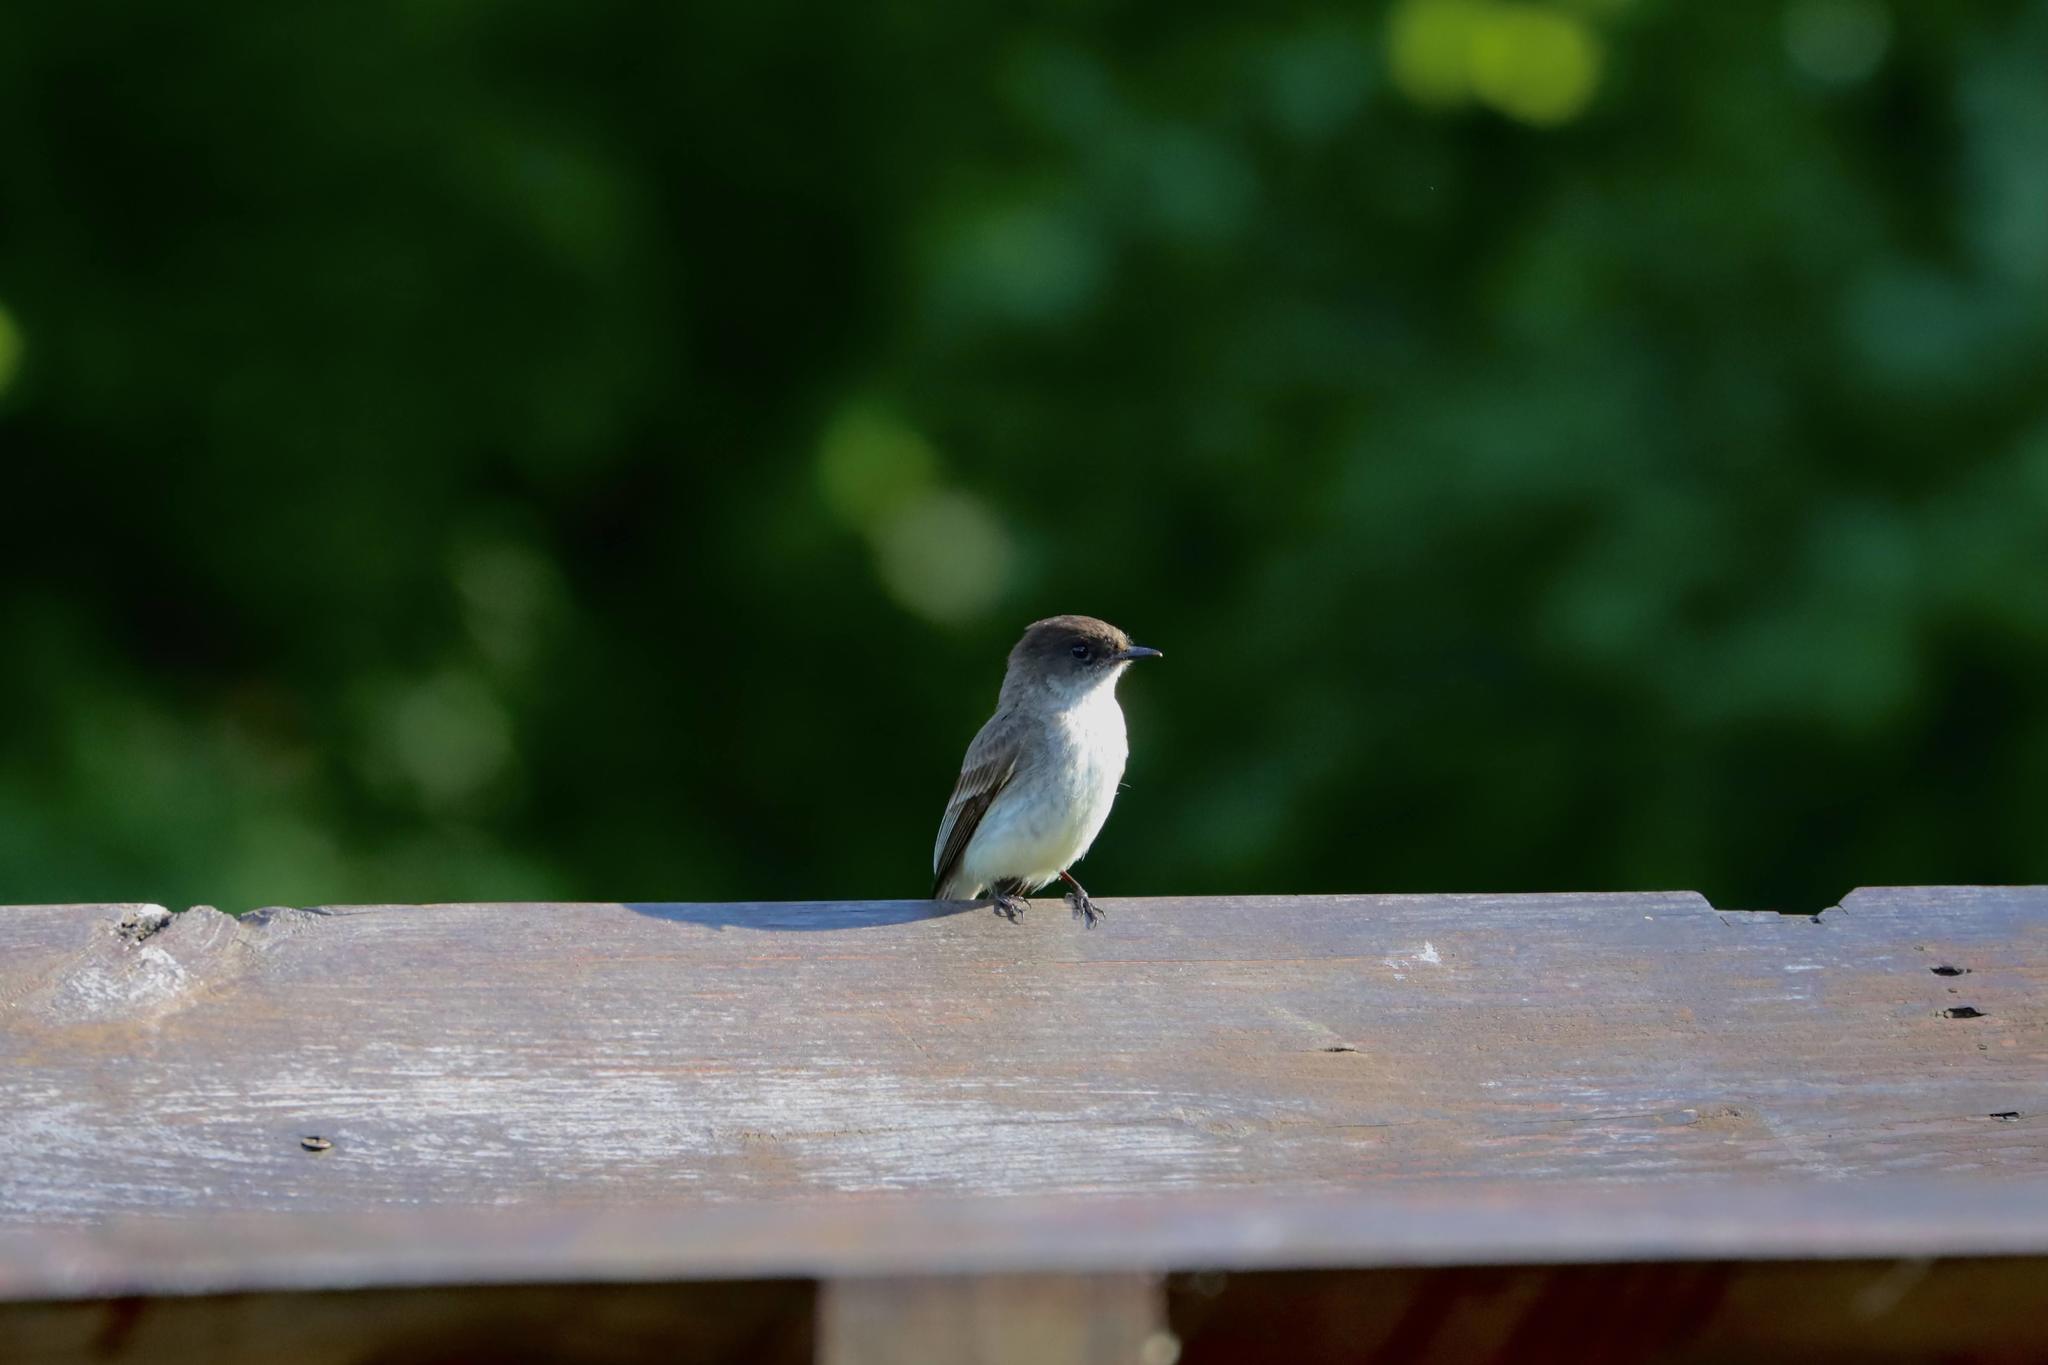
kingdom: Animalia
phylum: Chordata
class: Aves
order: Passeriformes
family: Tyrannidae
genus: Sayornis
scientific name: Sayornis phoebe
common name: Eastern phoebe
